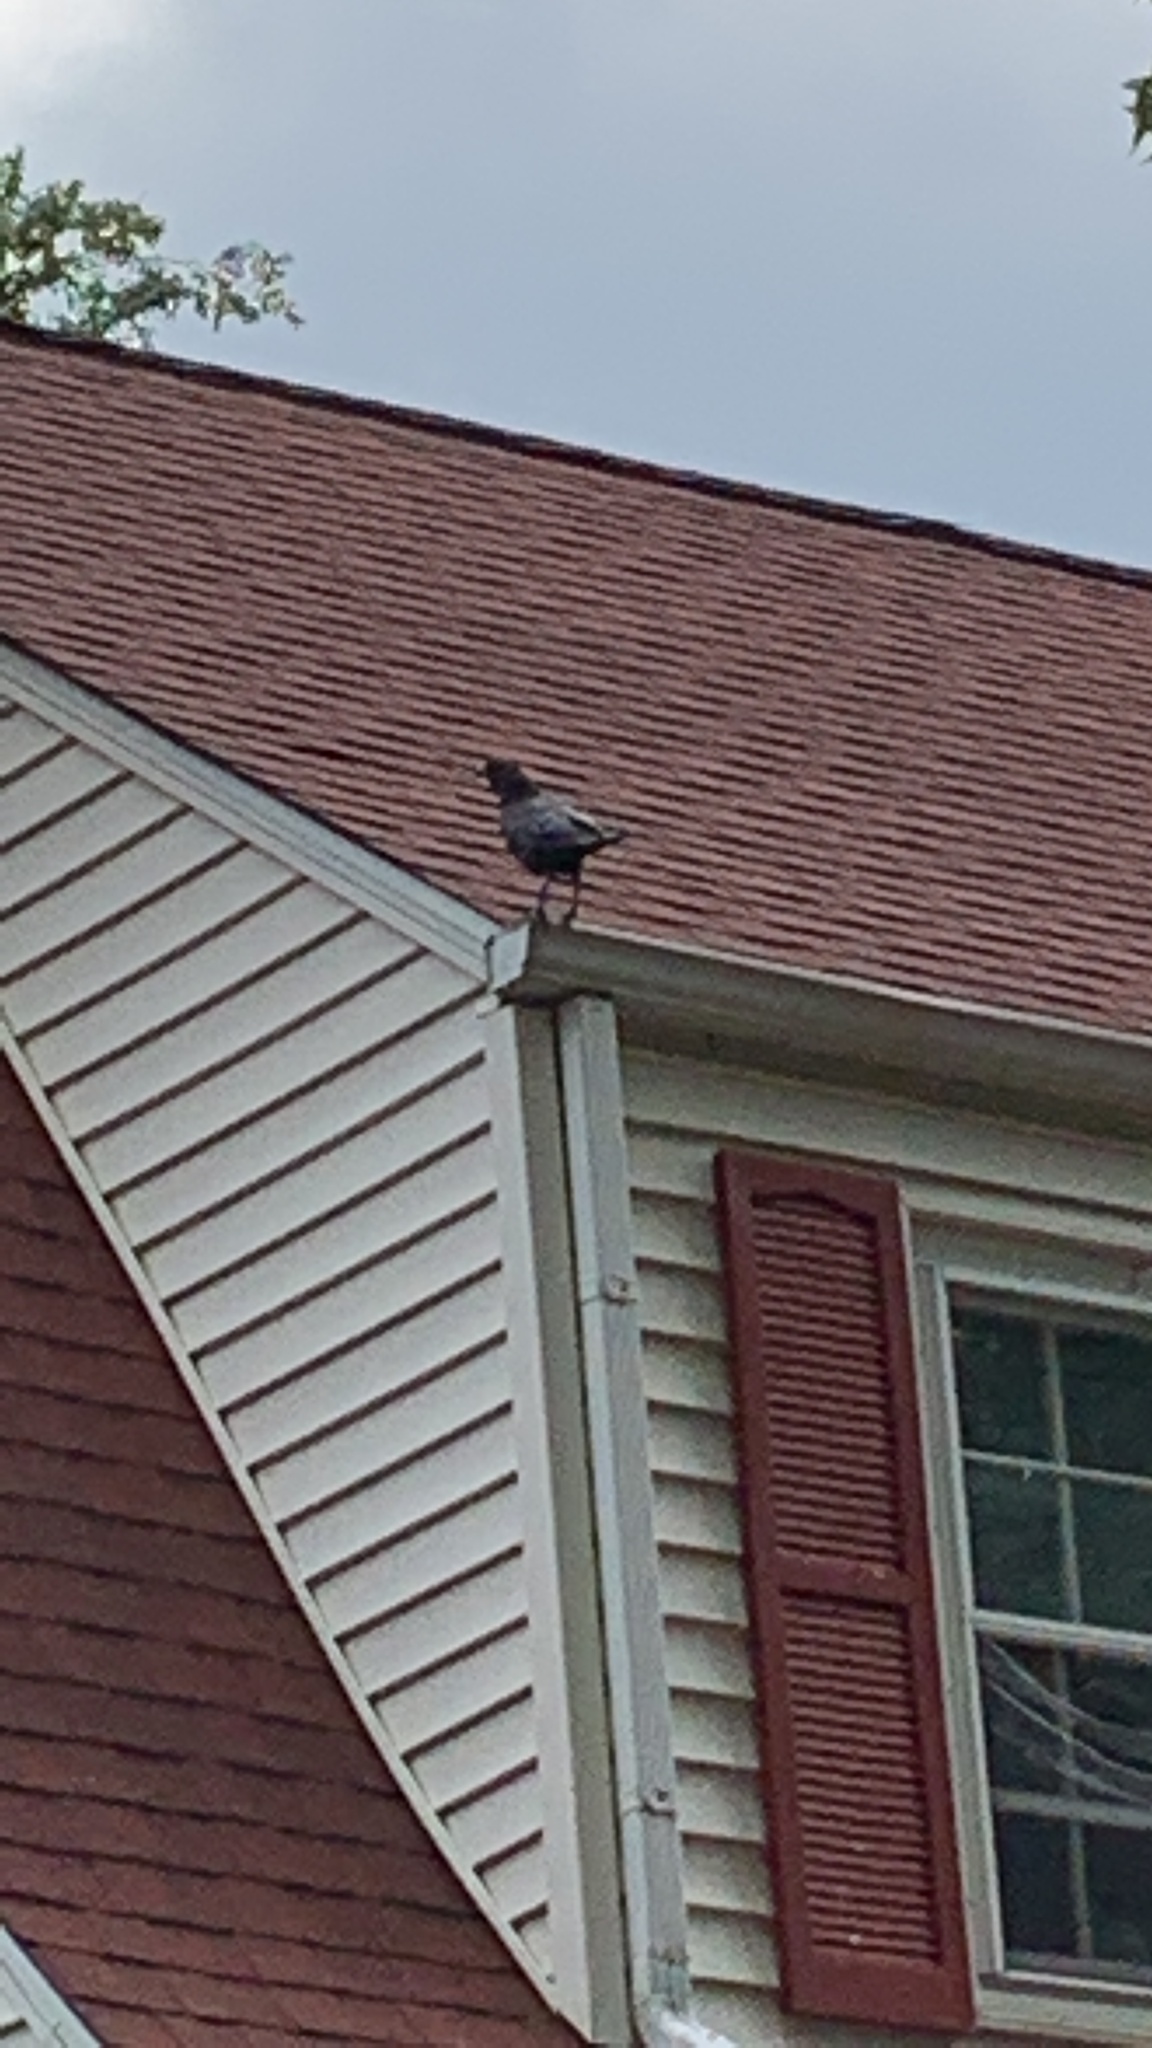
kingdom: Animalia
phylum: Chordata
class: Aves
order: Passeriformes
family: Corvidae
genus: Corvus
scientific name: Corvus brachyrhynchos
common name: American crow
